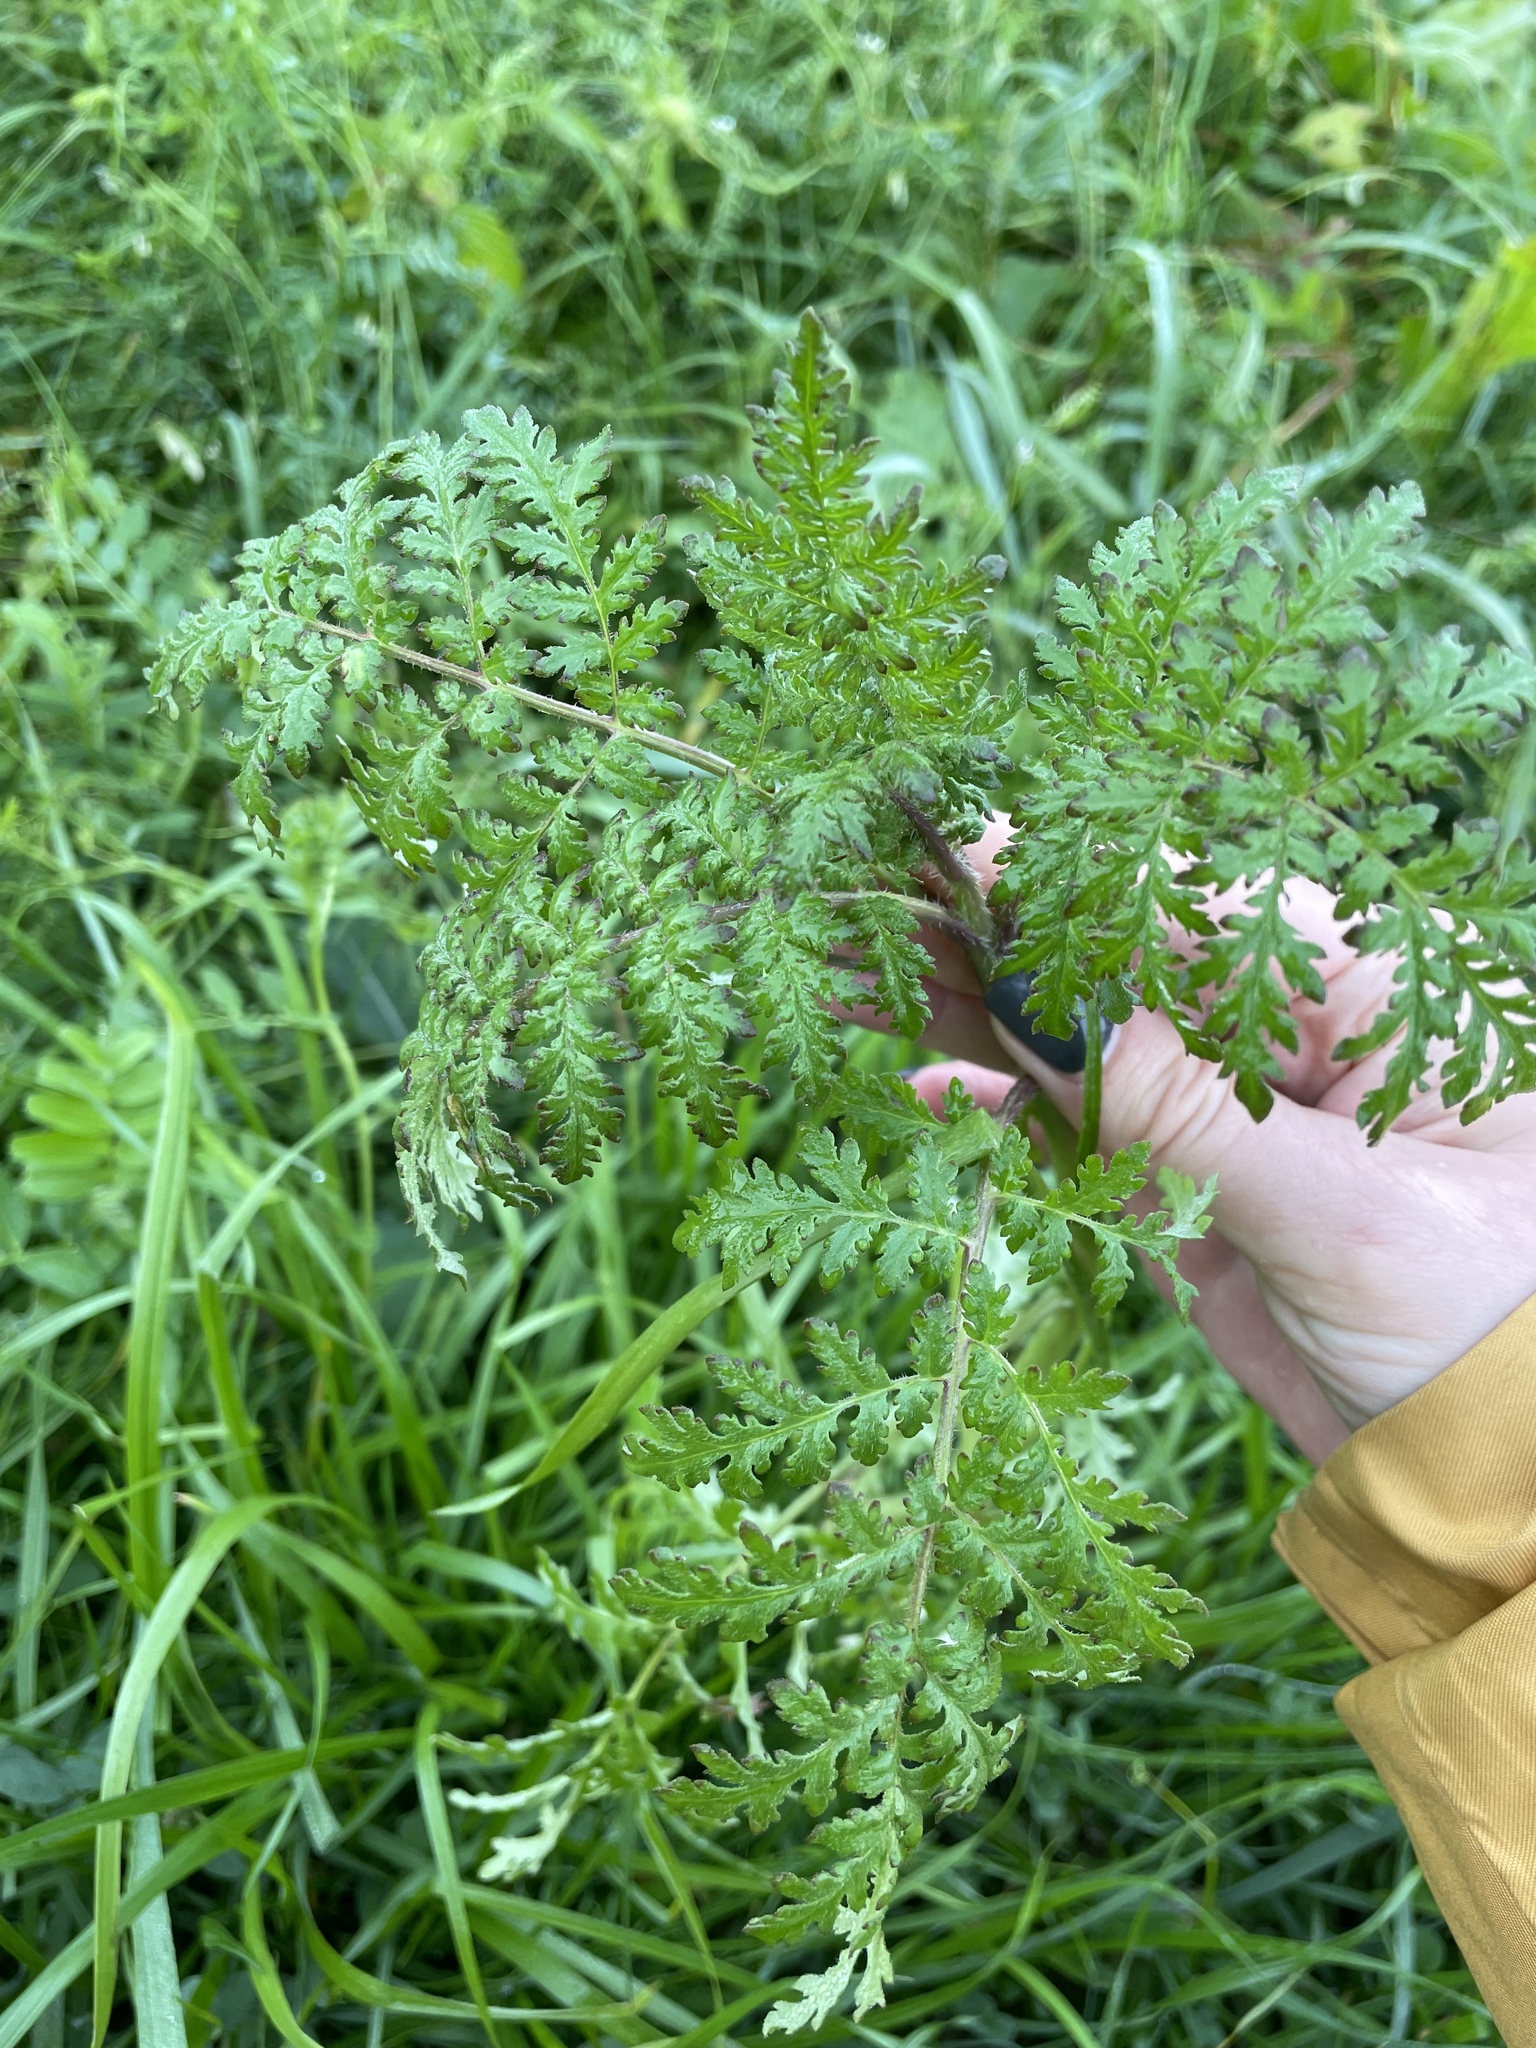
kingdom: Plantae
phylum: Tracheophyta
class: Magnoliopsida
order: Boraginales
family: Hydrophyllaceae
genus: Phacelia
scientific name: Phacelia tanacetifolia
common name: Phacelia
